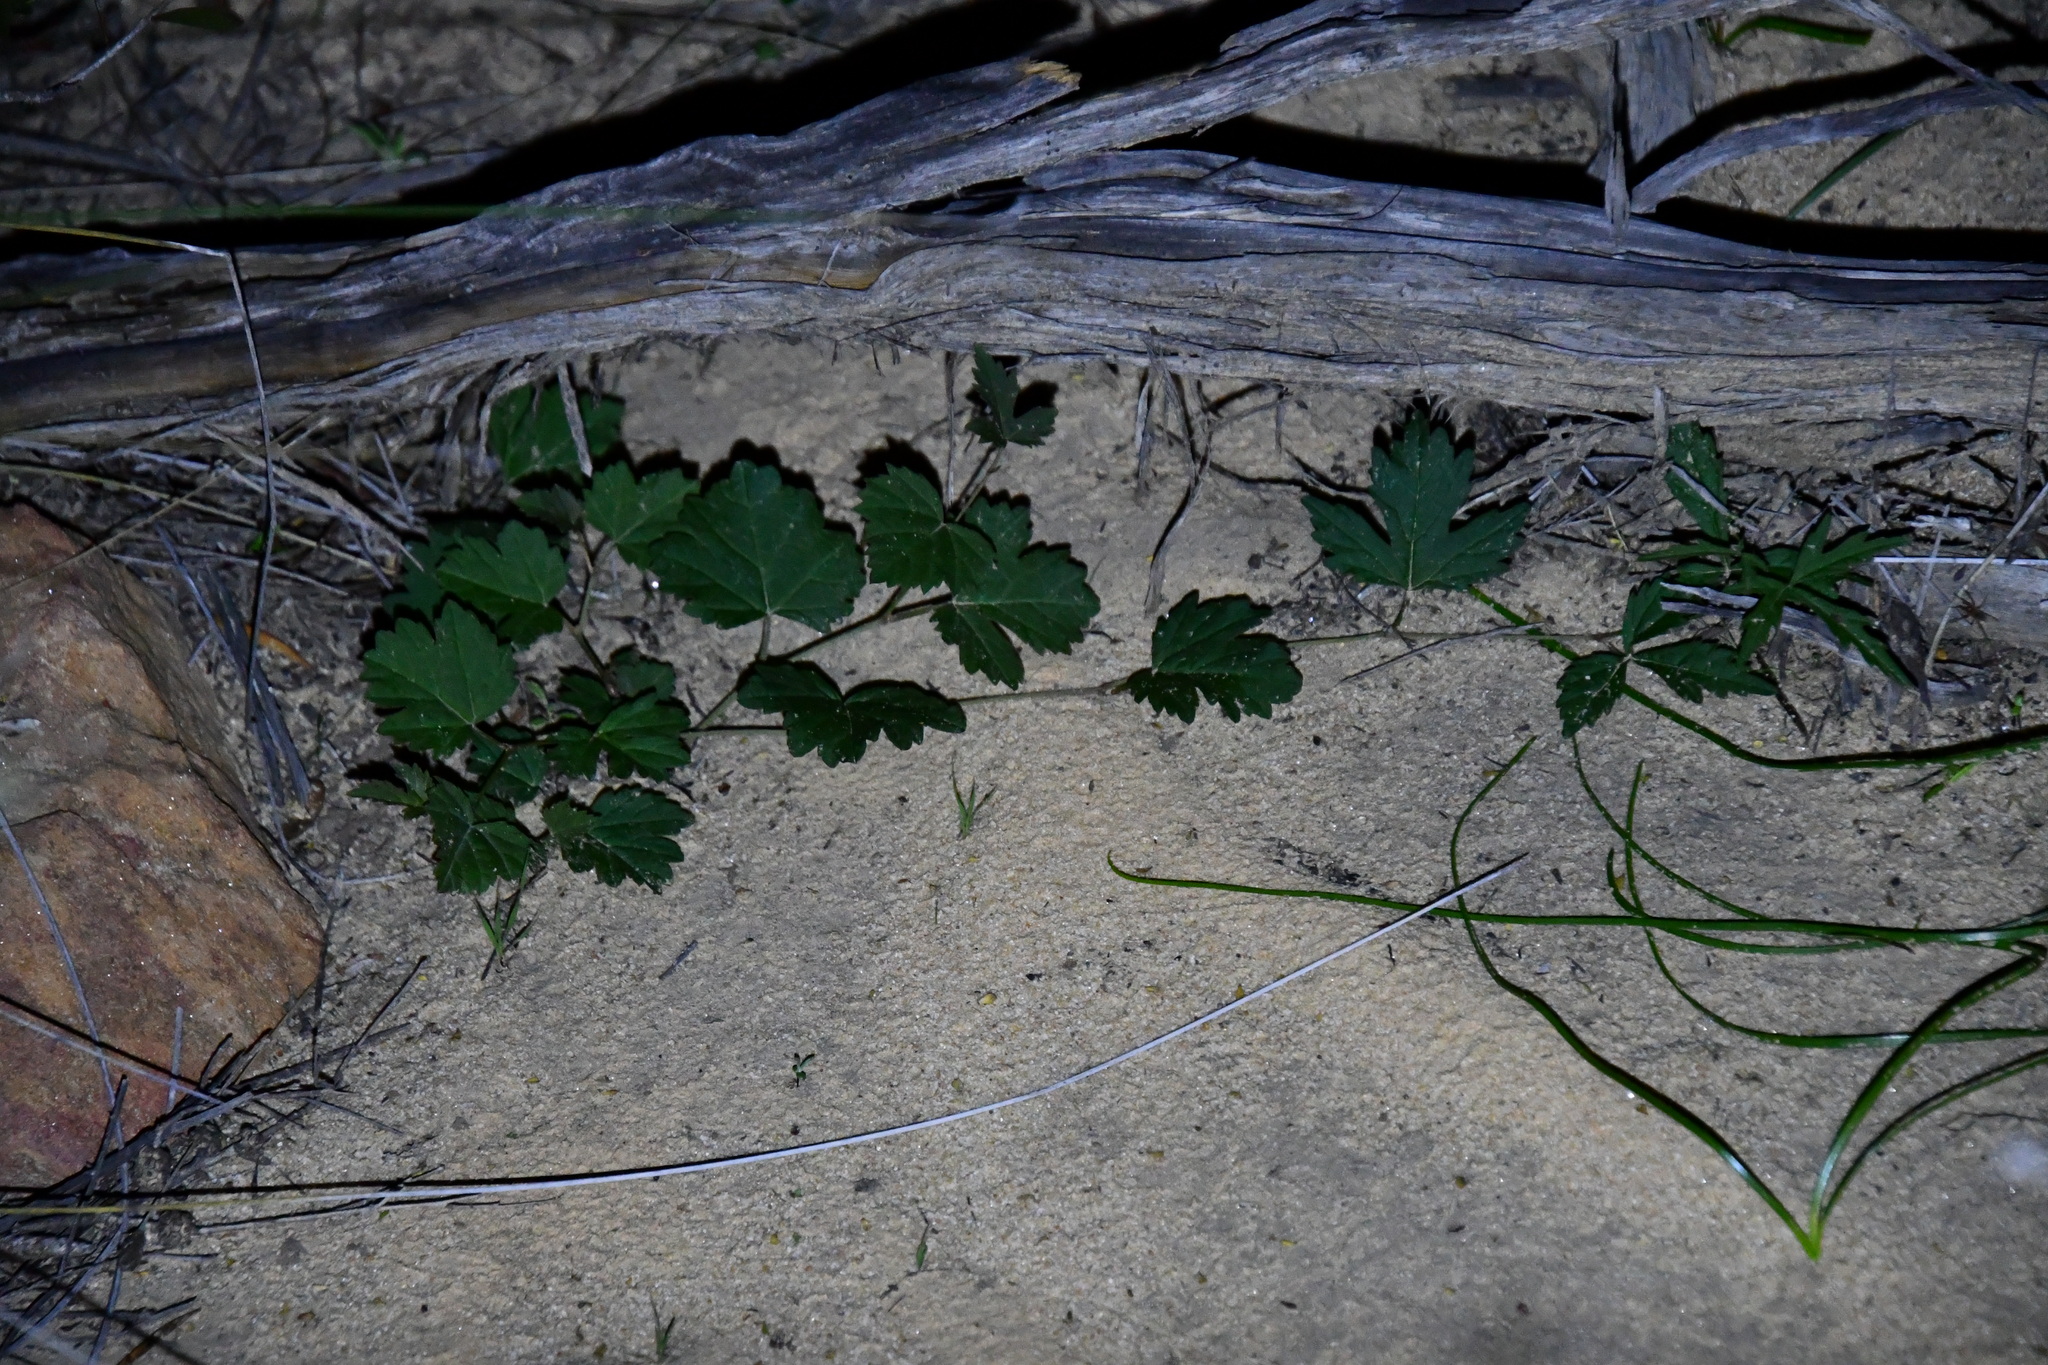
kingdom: Plantae
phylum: Tracheophyta
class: Magnoliopsida
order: Vitales
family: Vitaceae
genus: Clematicissus
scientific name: Clematicissus angustissima
